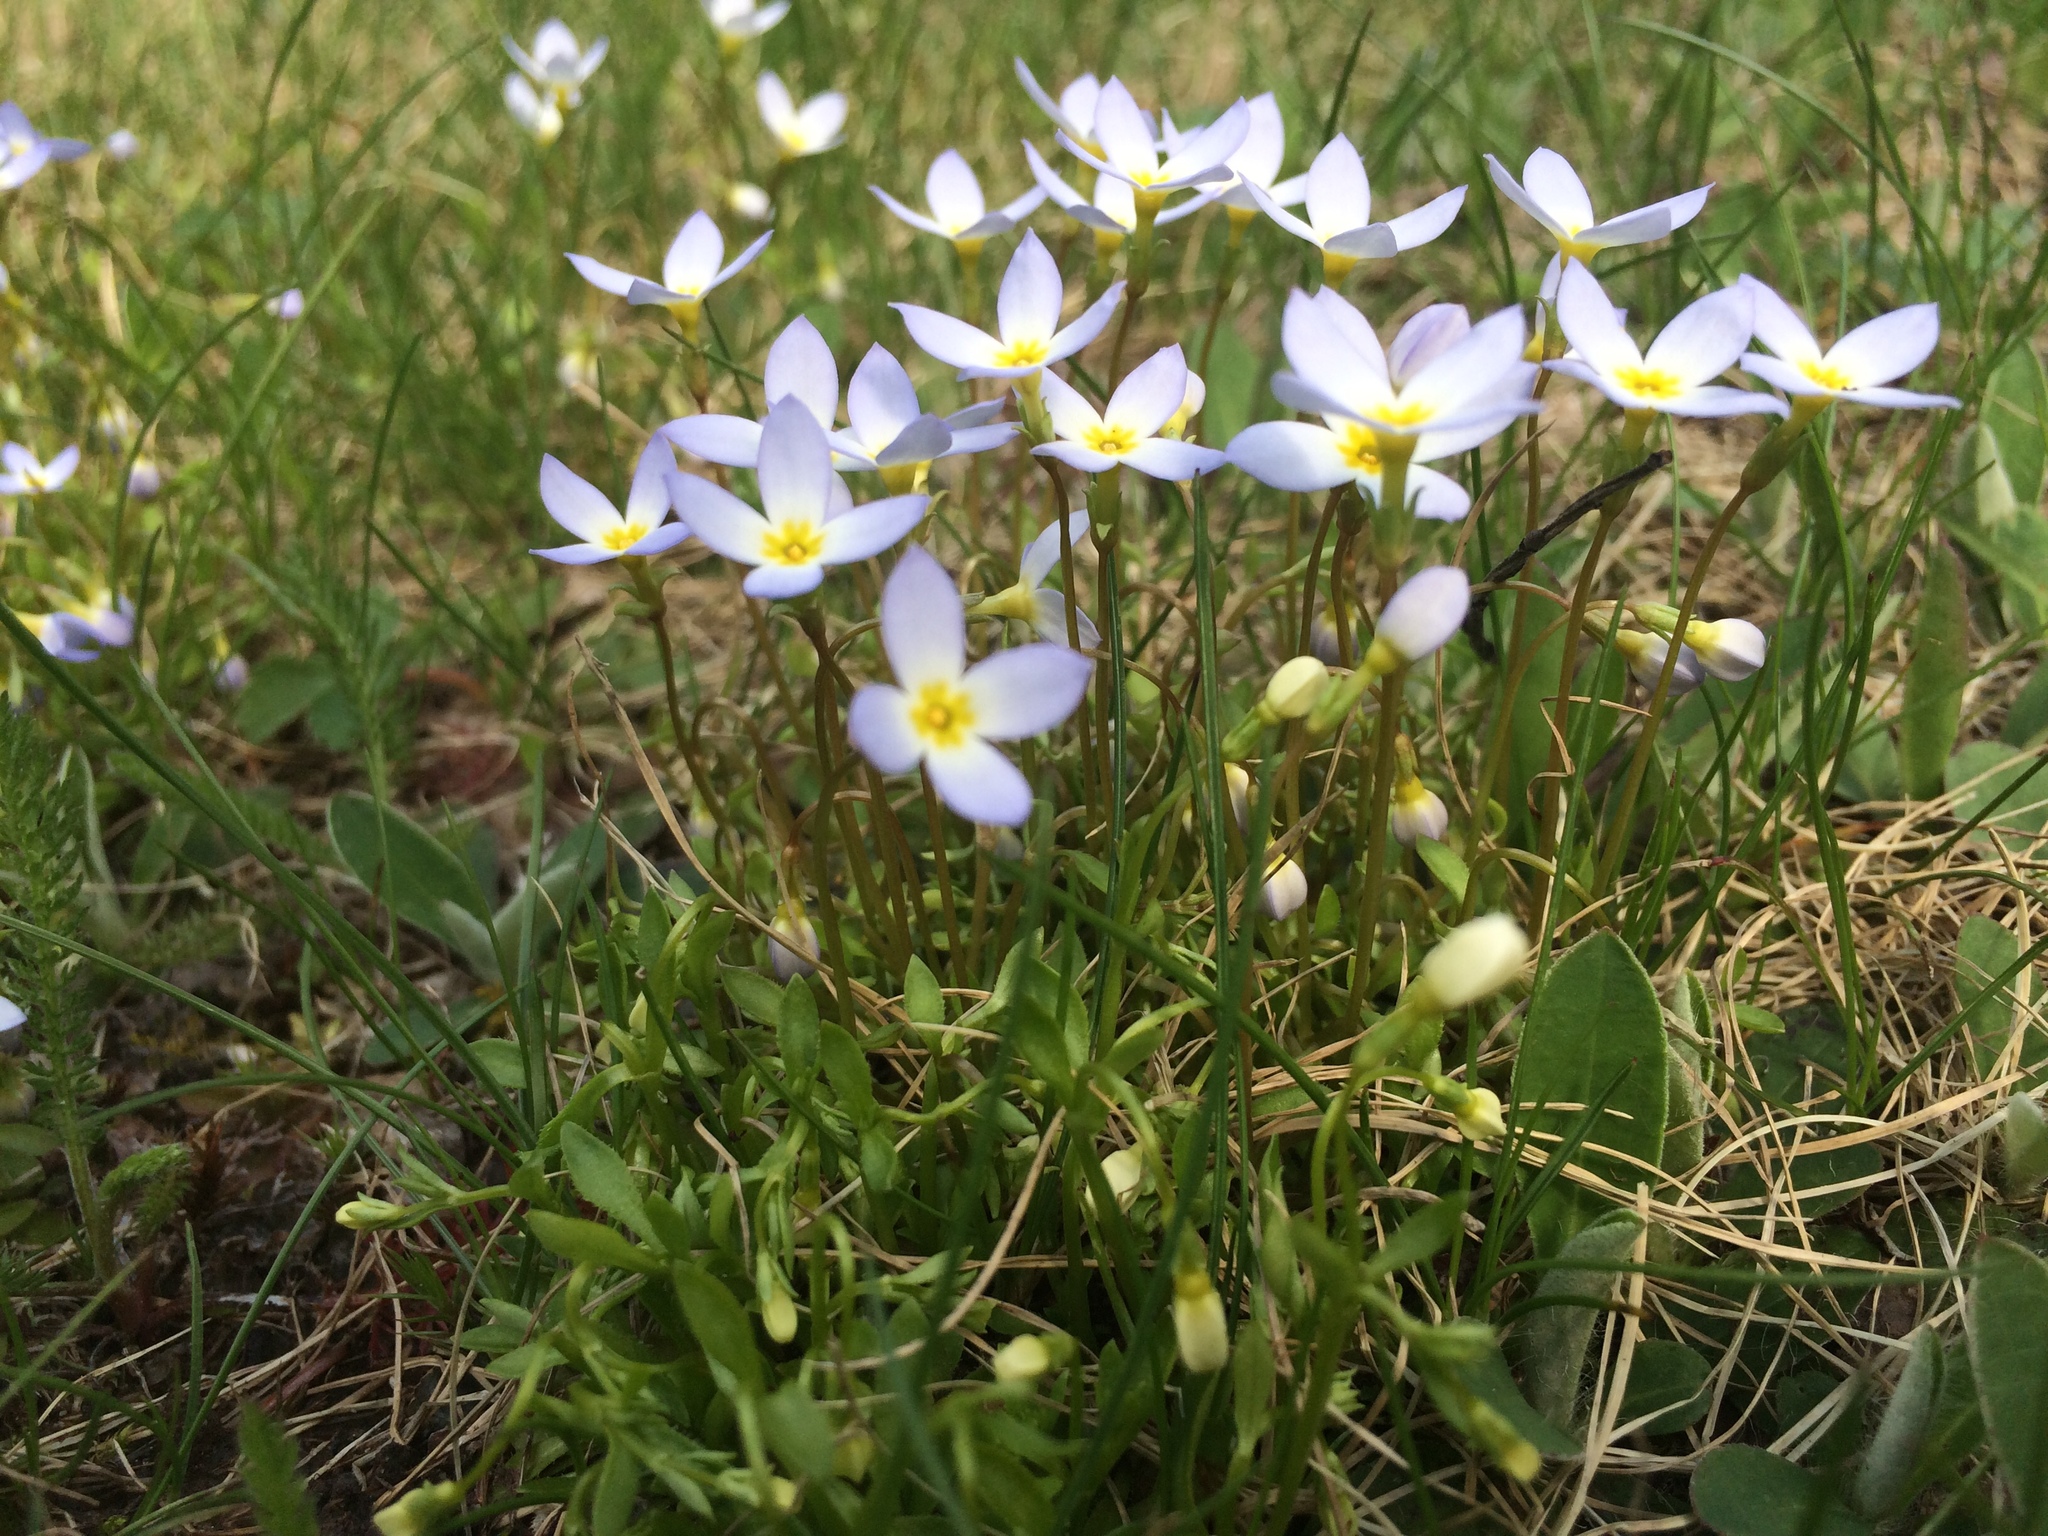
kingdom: Plantae
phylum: Tracheophyta
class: Magnoliopsida
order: Gentianales
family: Rubiaceae
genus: Houstonia
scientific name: Houstonia caerulea
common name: Bluets
